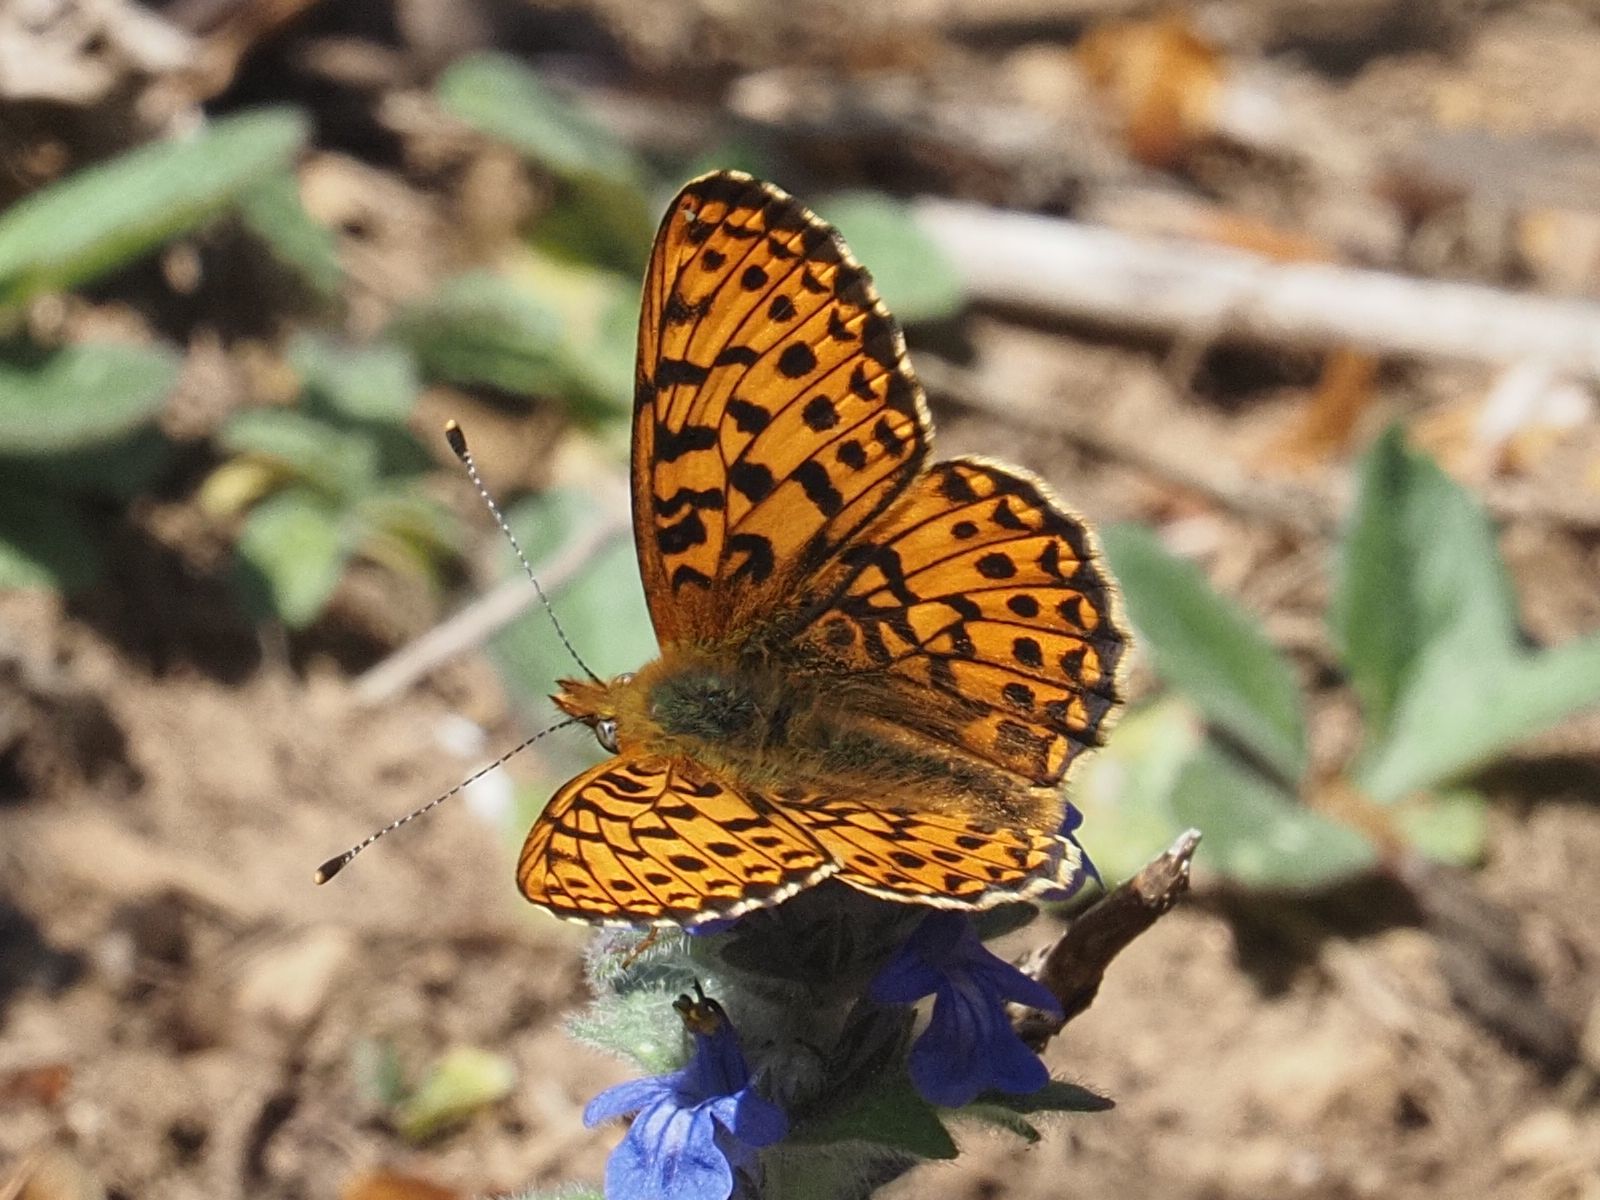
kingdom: Animalia
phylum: Arthropoda
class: Insecta
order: Lepidoptera
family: Nymphalidae
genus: Clossiana
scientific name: Clossiana euphrosyne
